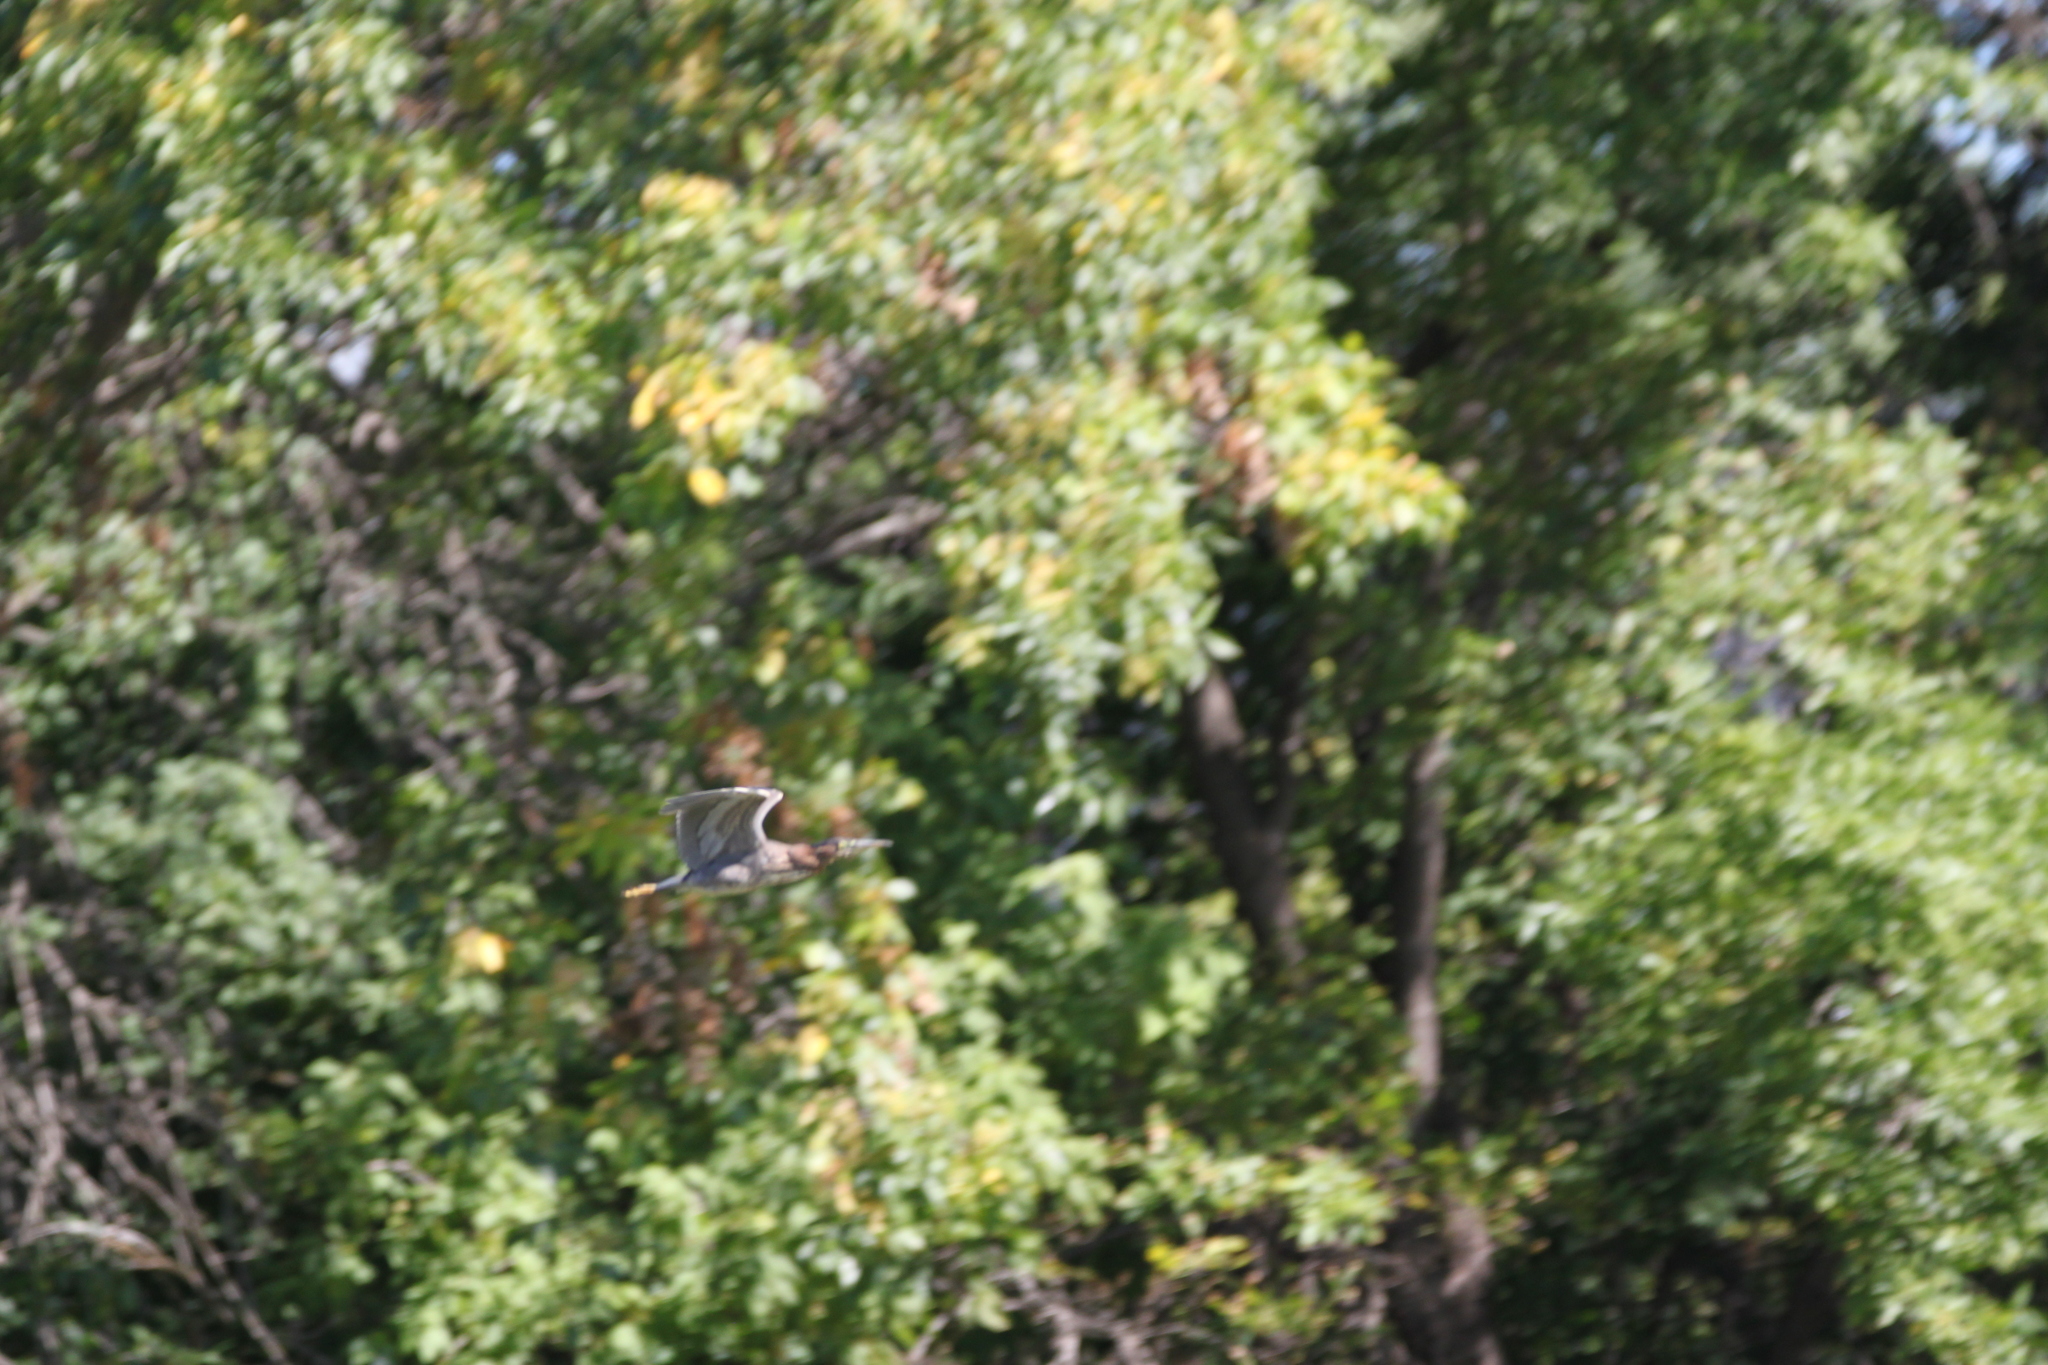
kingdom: Animalia
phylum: Chordata
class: Aves
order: Pelecaniformes
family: Ardeidae
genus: Butorides
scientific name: Butorides virescens
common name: Green heron
